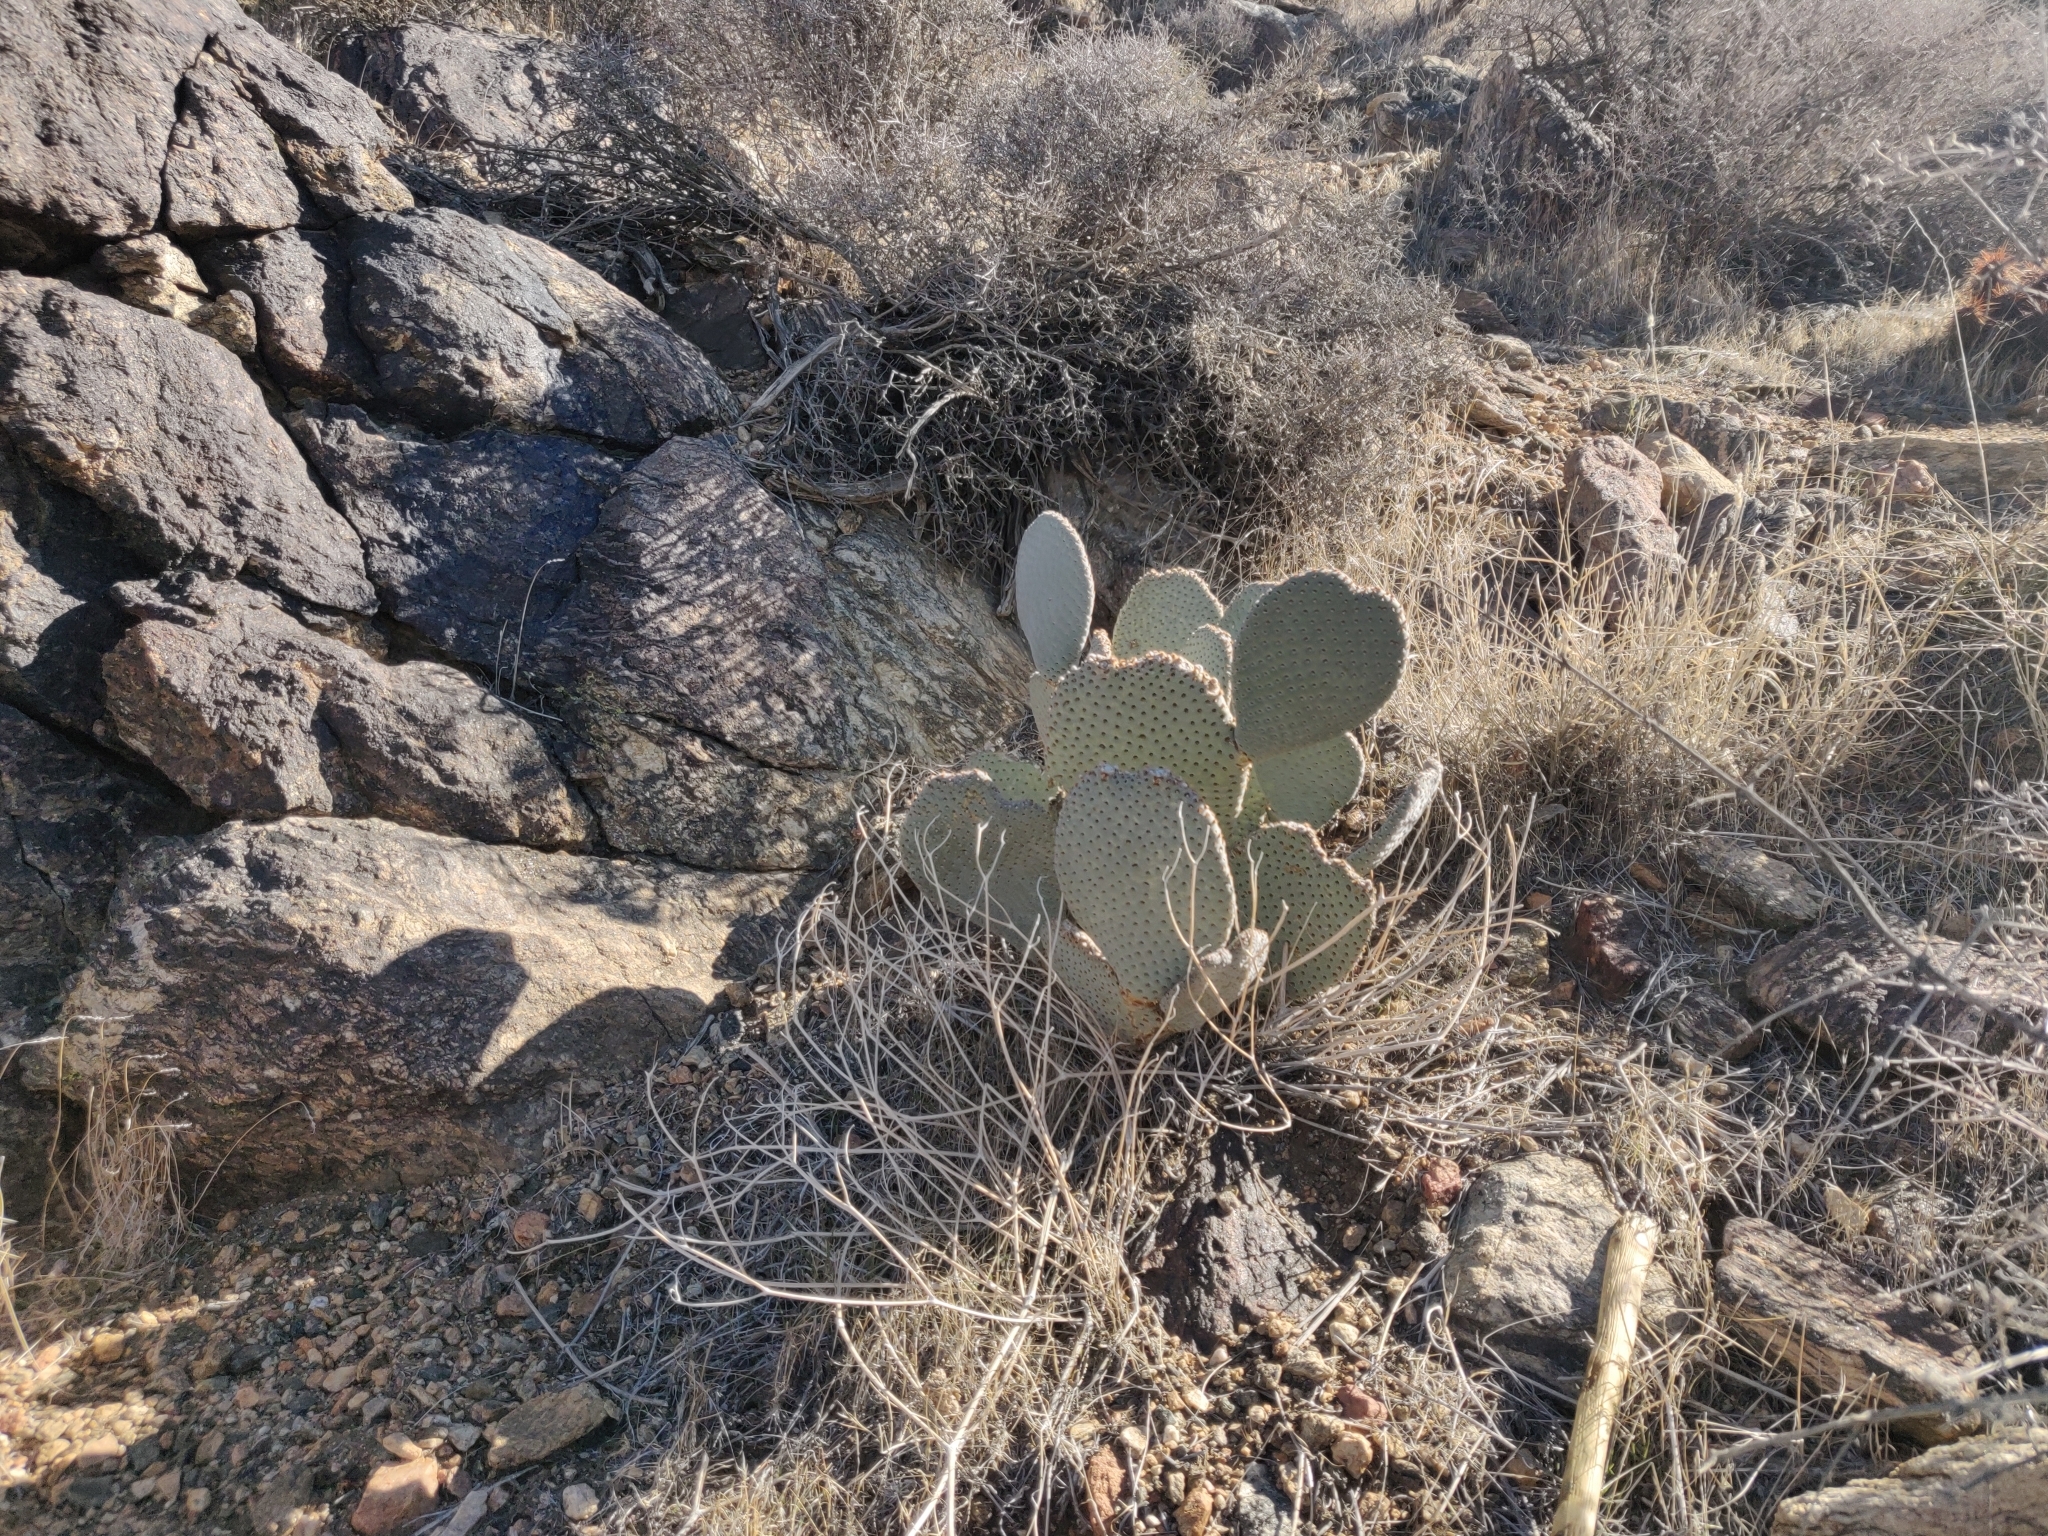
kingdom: Plantae
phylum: Tracheophyta
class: Magnoliopsida
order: Caryophyllales
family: Cactaceae
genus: Opuntia
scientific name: Opuntia basilaris
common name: Beavertail prickly-pear
